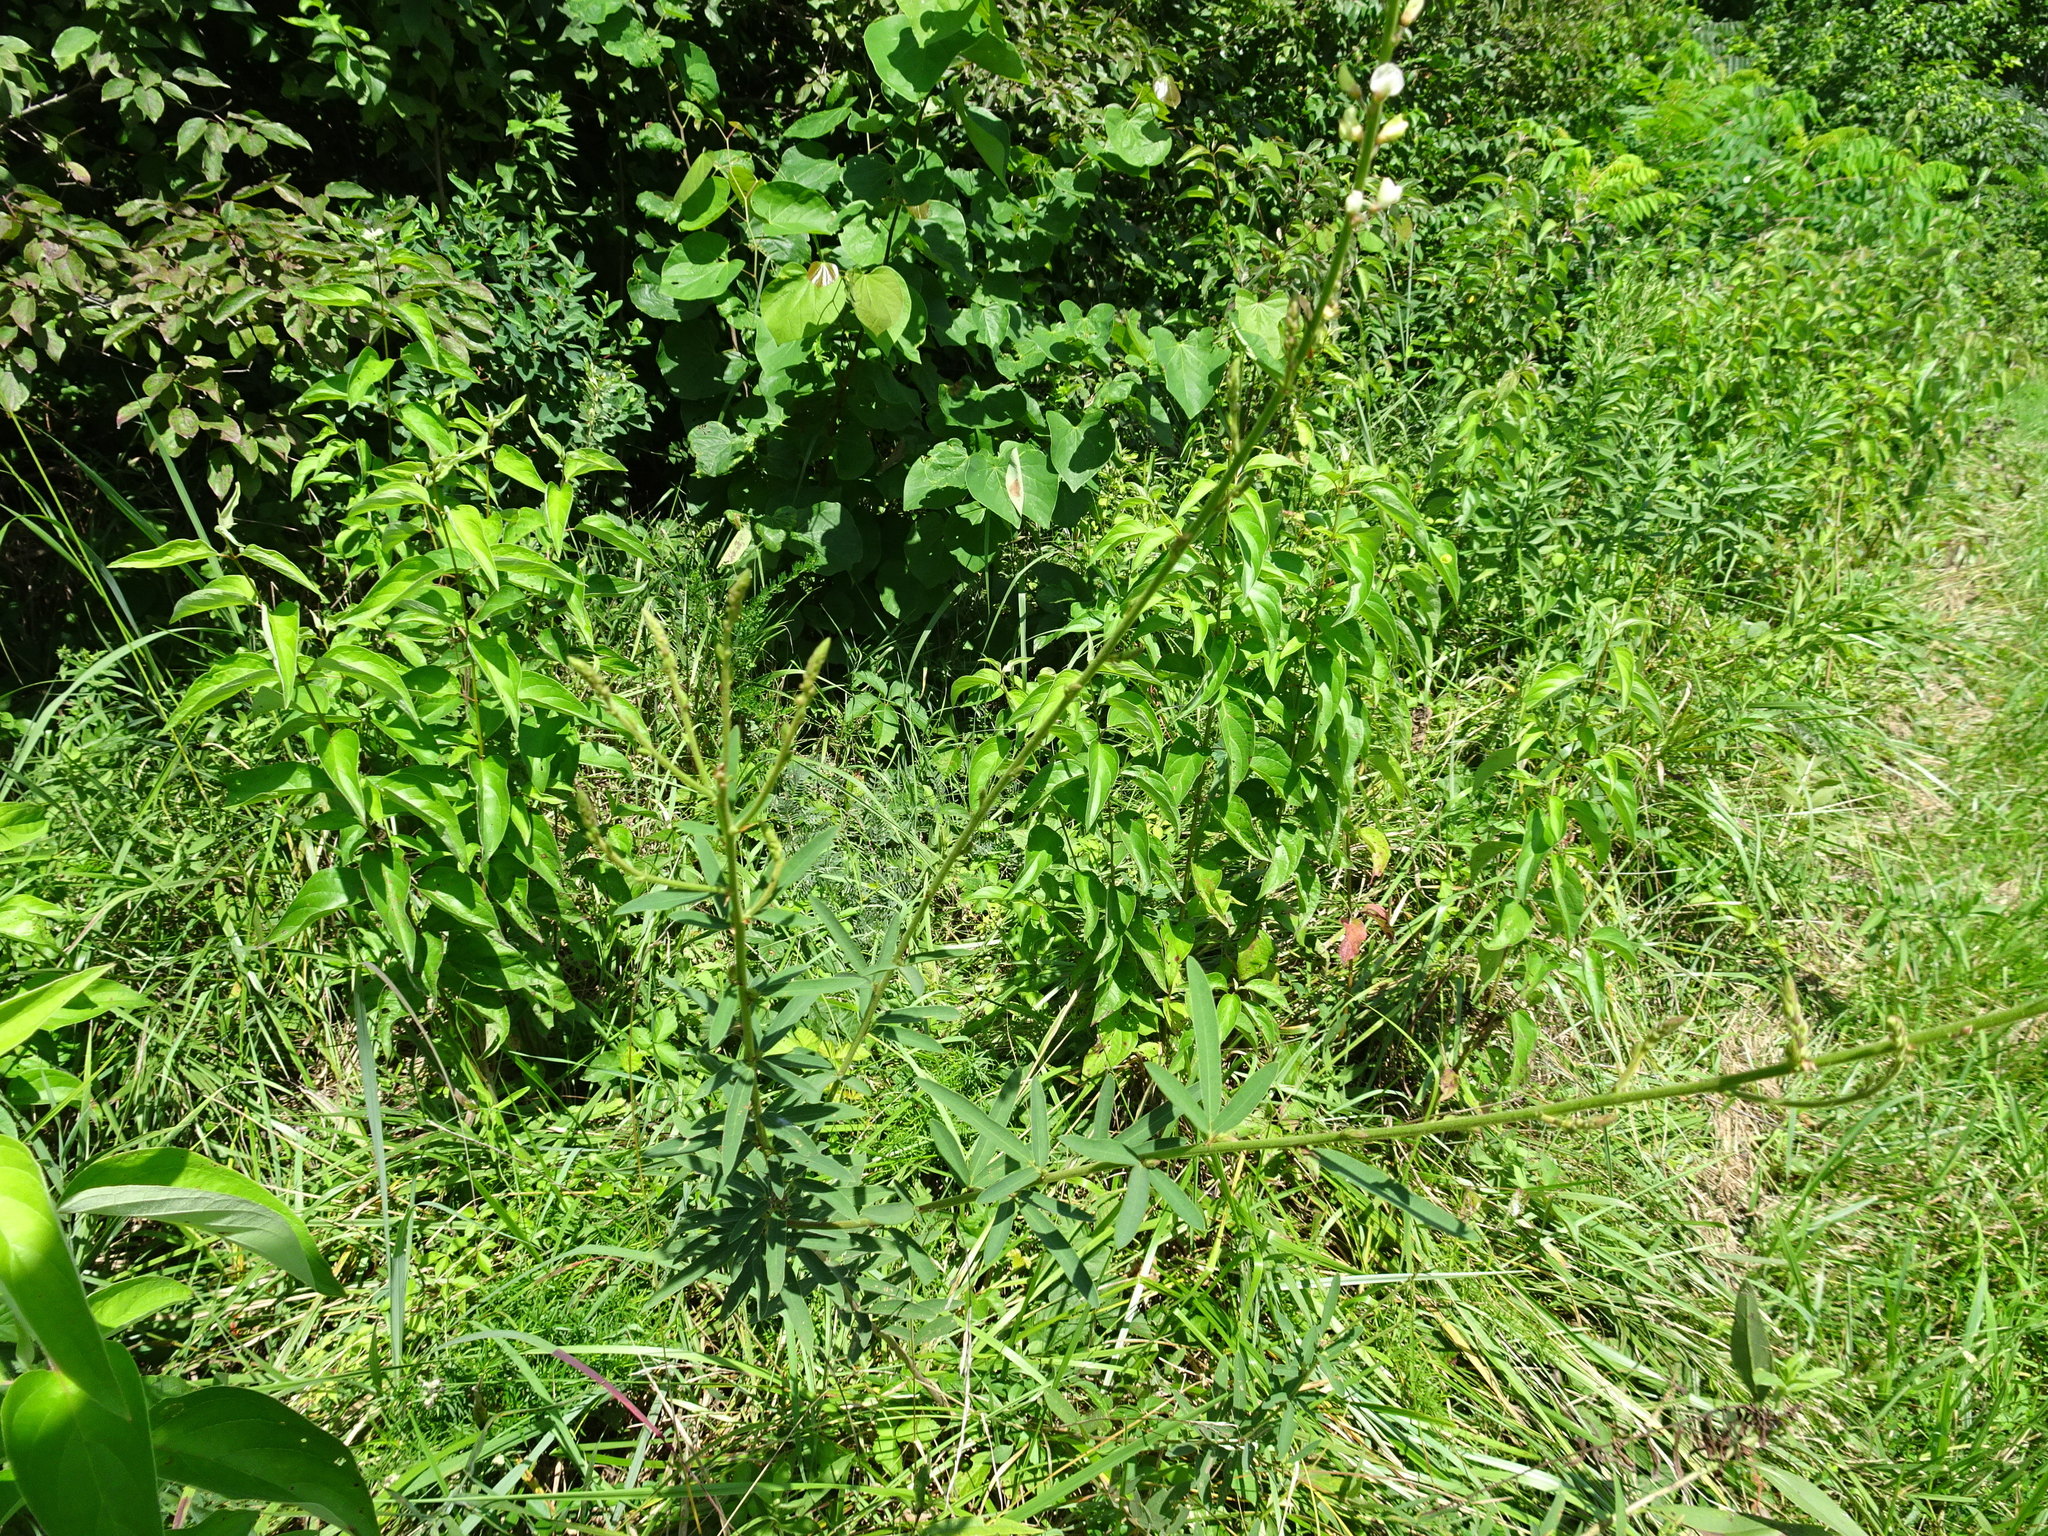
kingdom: Plantae
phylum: Tracheophyta
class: Magnoliopsida
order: Fabales
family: Fabaceae
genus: Desmodium
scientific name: Desmodium sessilifolium
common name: Sessile tick-clover
